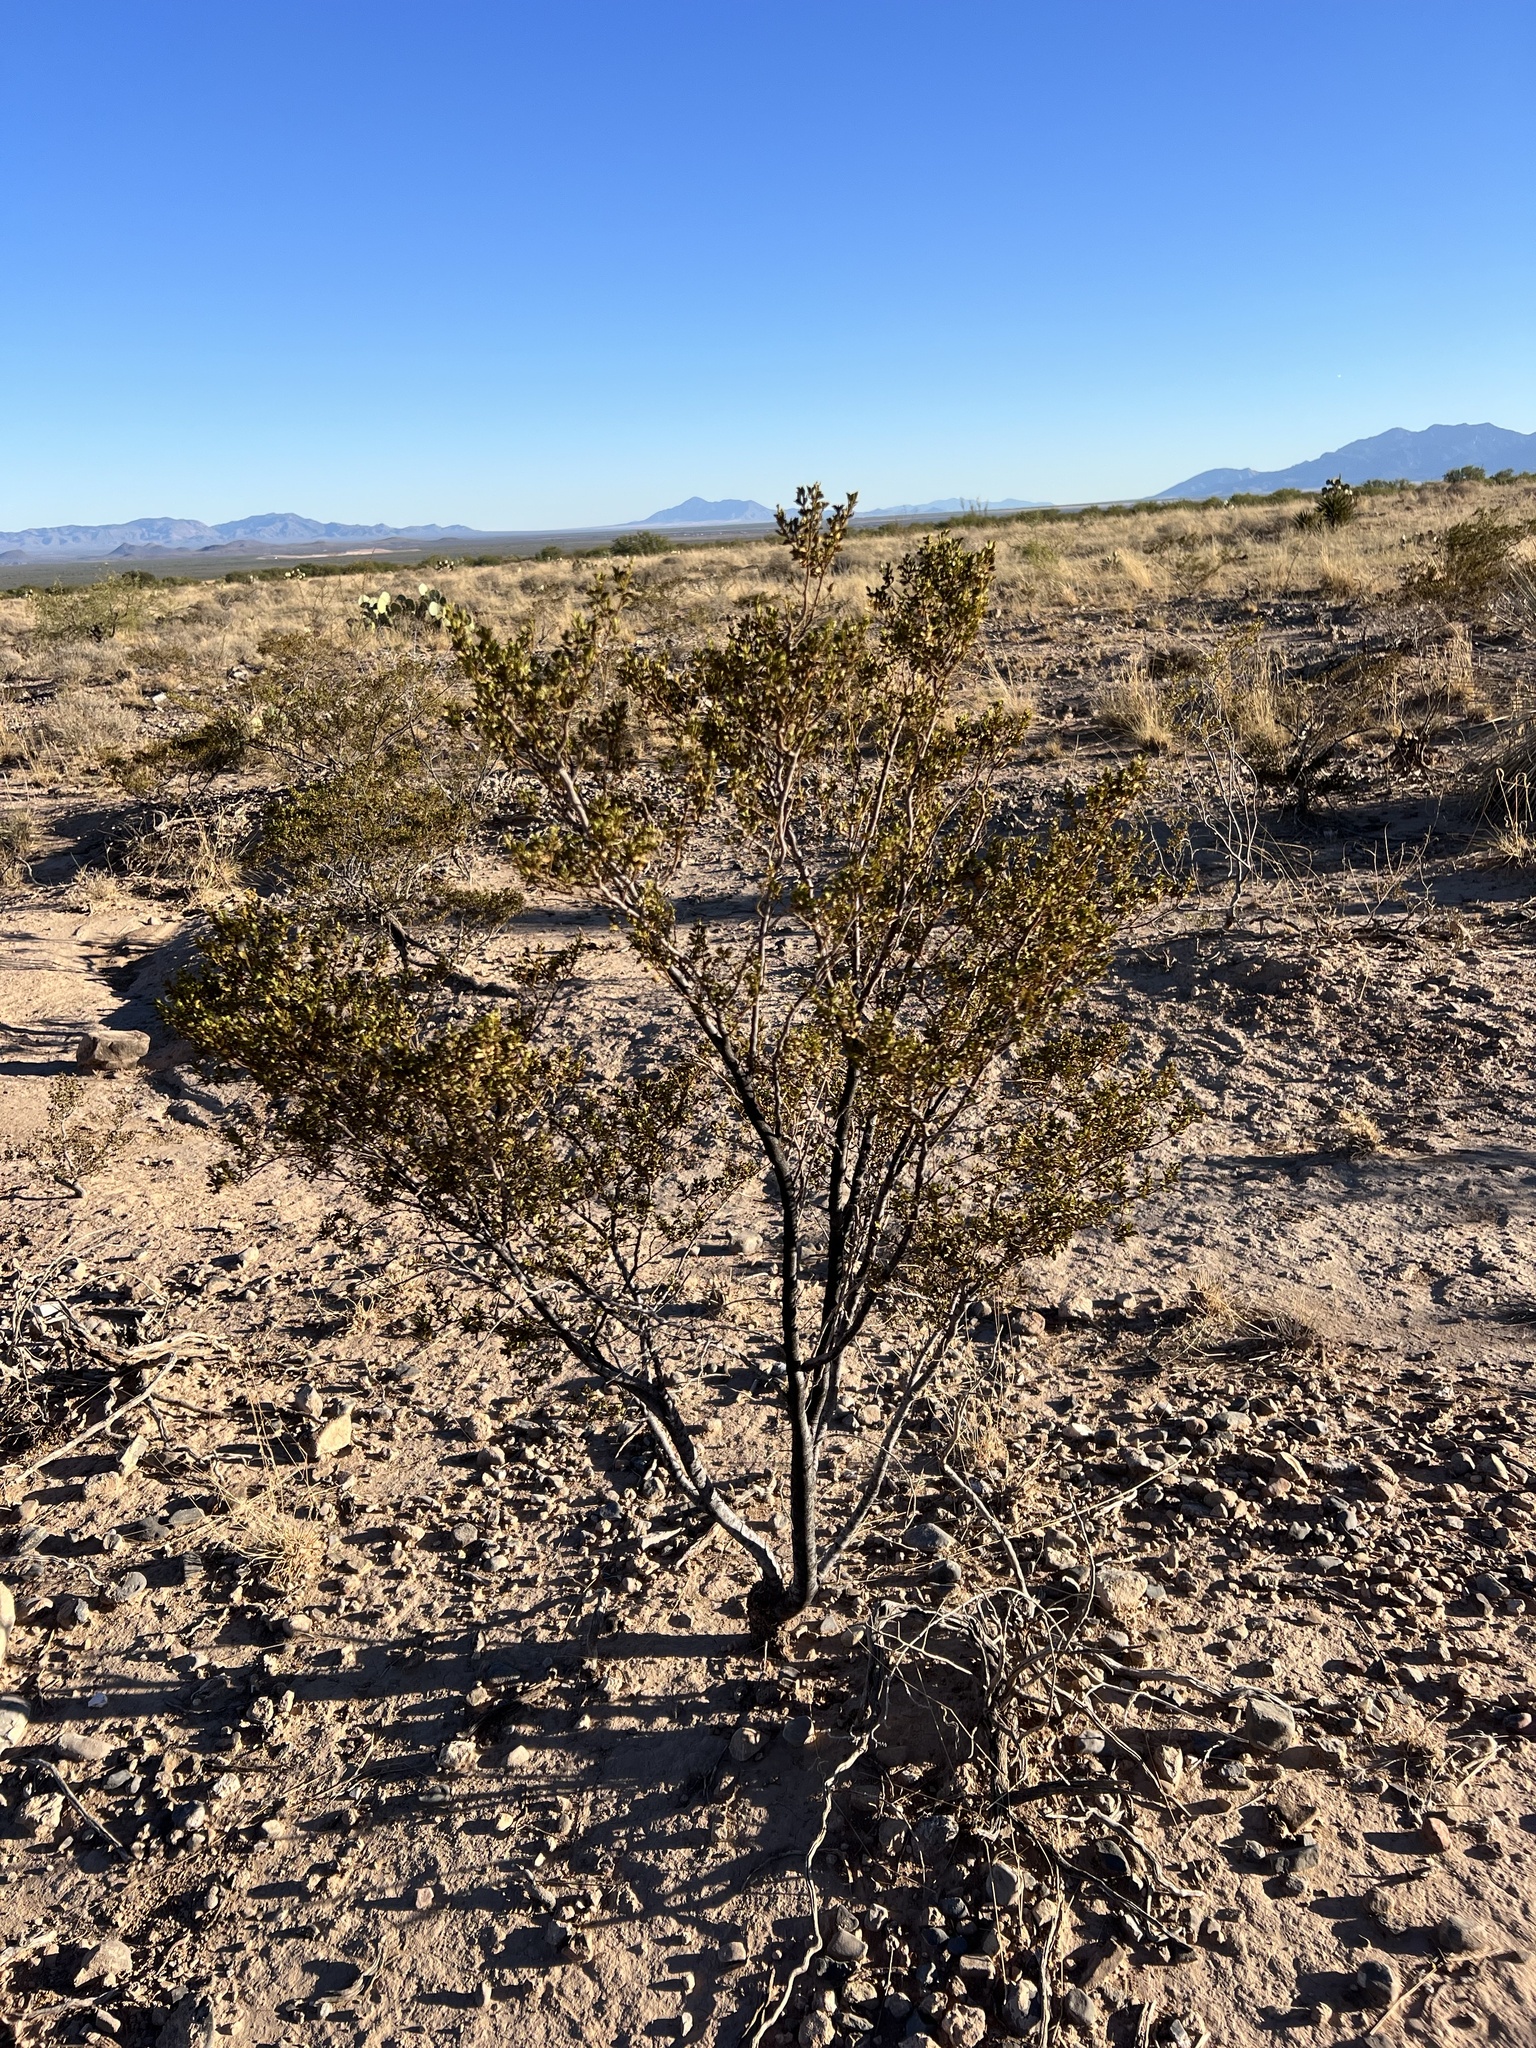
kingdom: Plantae
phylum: Tracheophyta
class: Magnoliopsida
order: Zygophyllales
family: Zygophyllaceae
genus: Larrea
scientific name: Larrea tridentata
